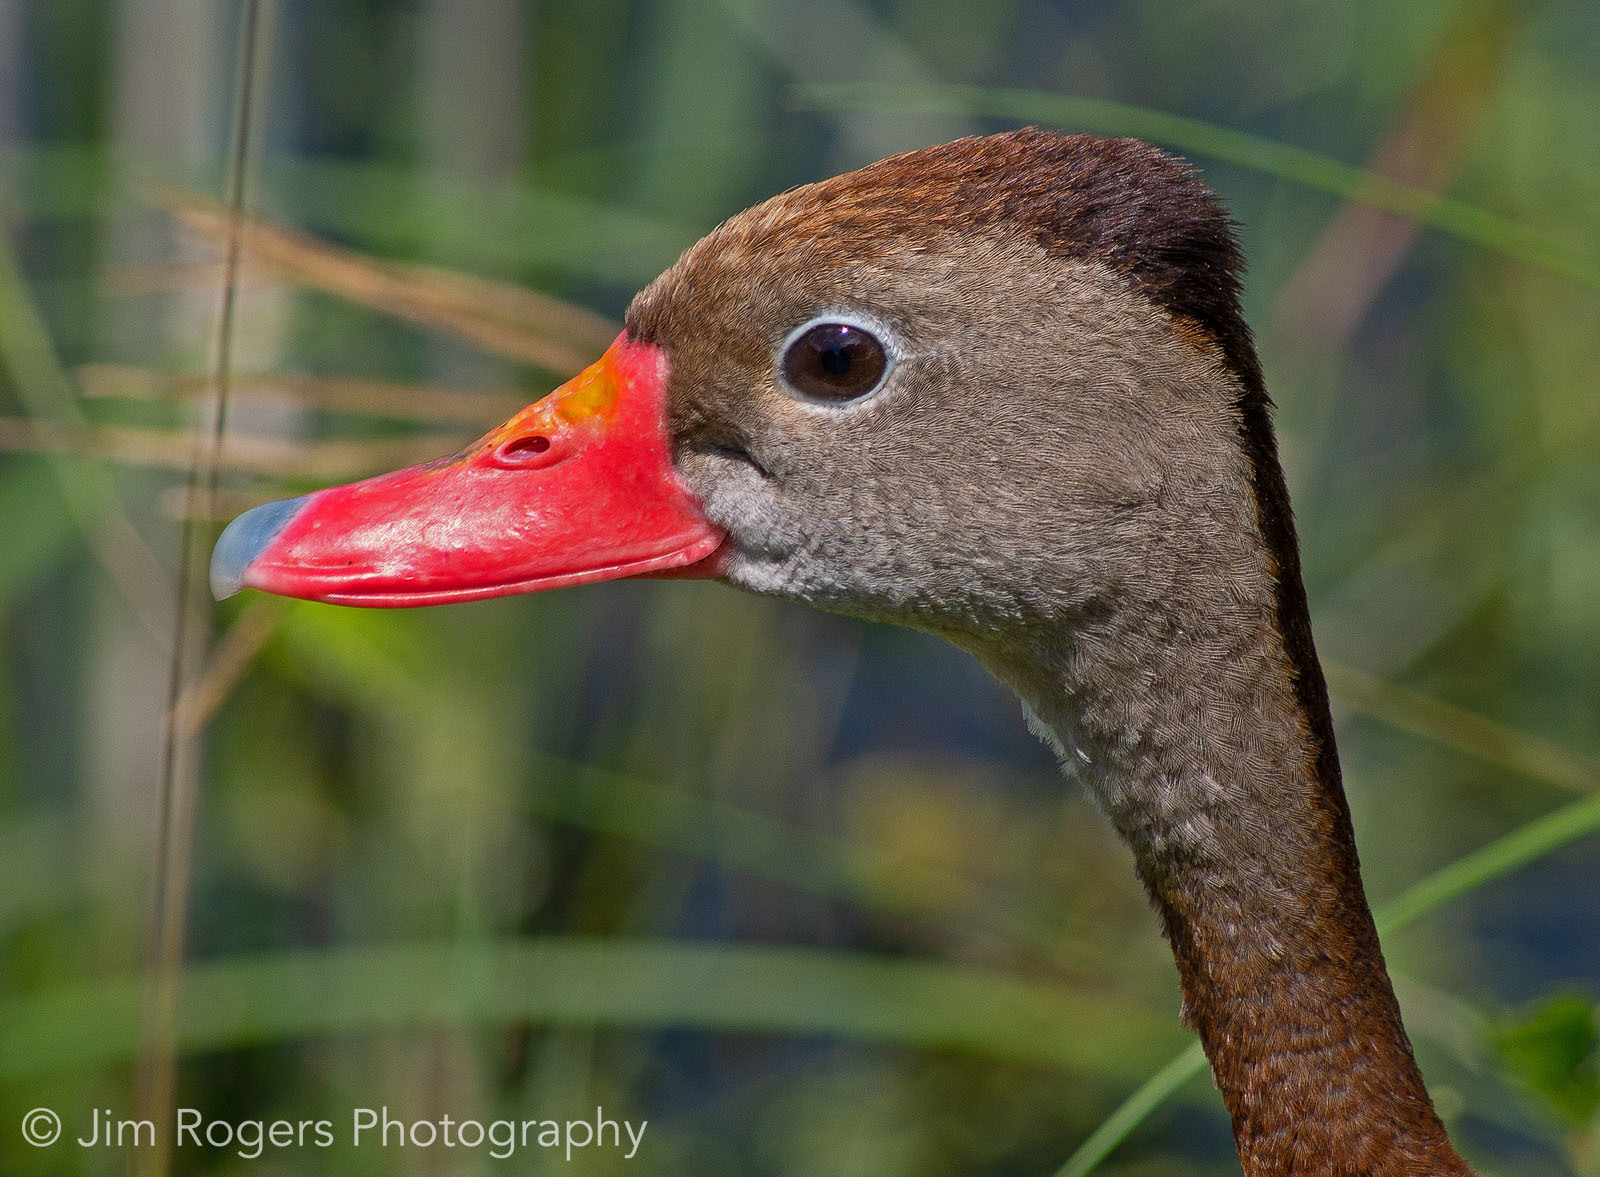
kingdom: Animalia
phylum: Chordata
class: Aves
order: Anseriformes
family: Anatidae
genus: Dendrocygna
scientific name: Dendrocygna autumnalis
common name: Black-bellied whistling duck
